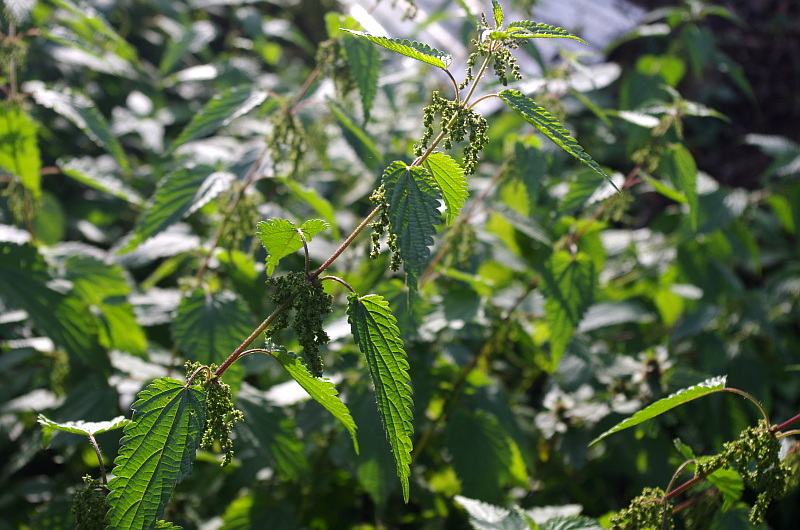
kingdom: Plantae
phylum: Tracheophyta
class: Magnoliopsida
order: Rosales
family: Urticaceae
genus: Urtica
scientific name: Urtica dioica
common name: Common nettle
